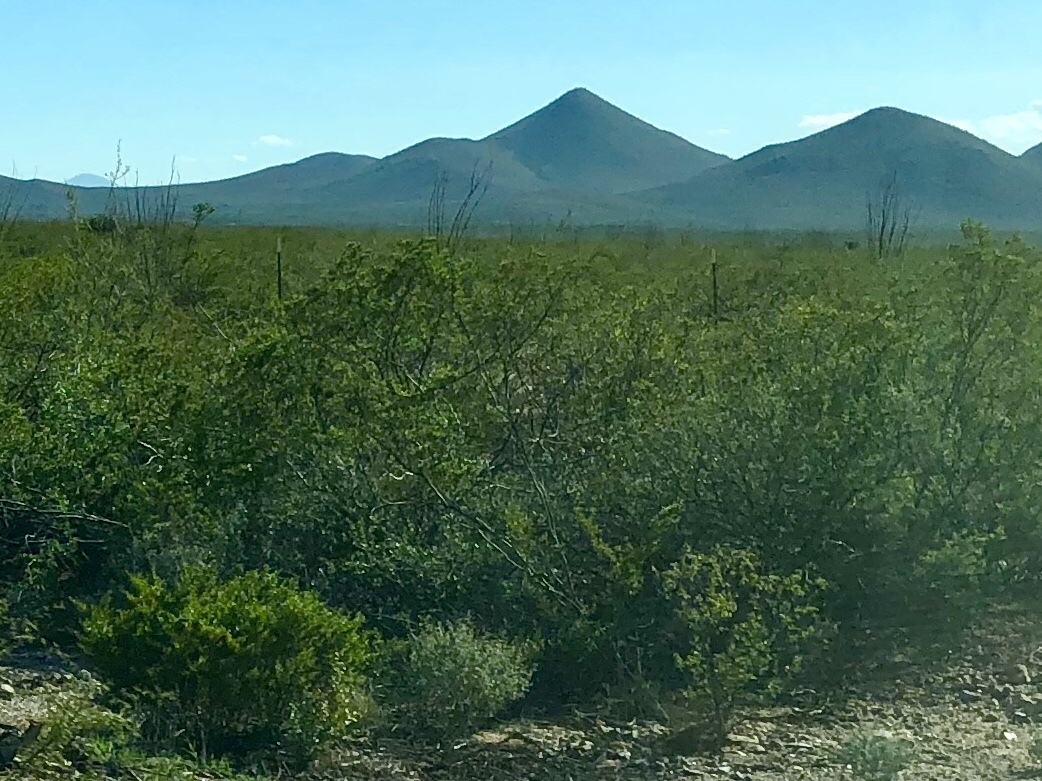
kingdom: Plantae
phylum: Tracheophyta
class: Magnoliopsida
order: Zygophyllales
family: Zygophyllaceae
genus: Larrea
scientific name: Larrea tridentata
